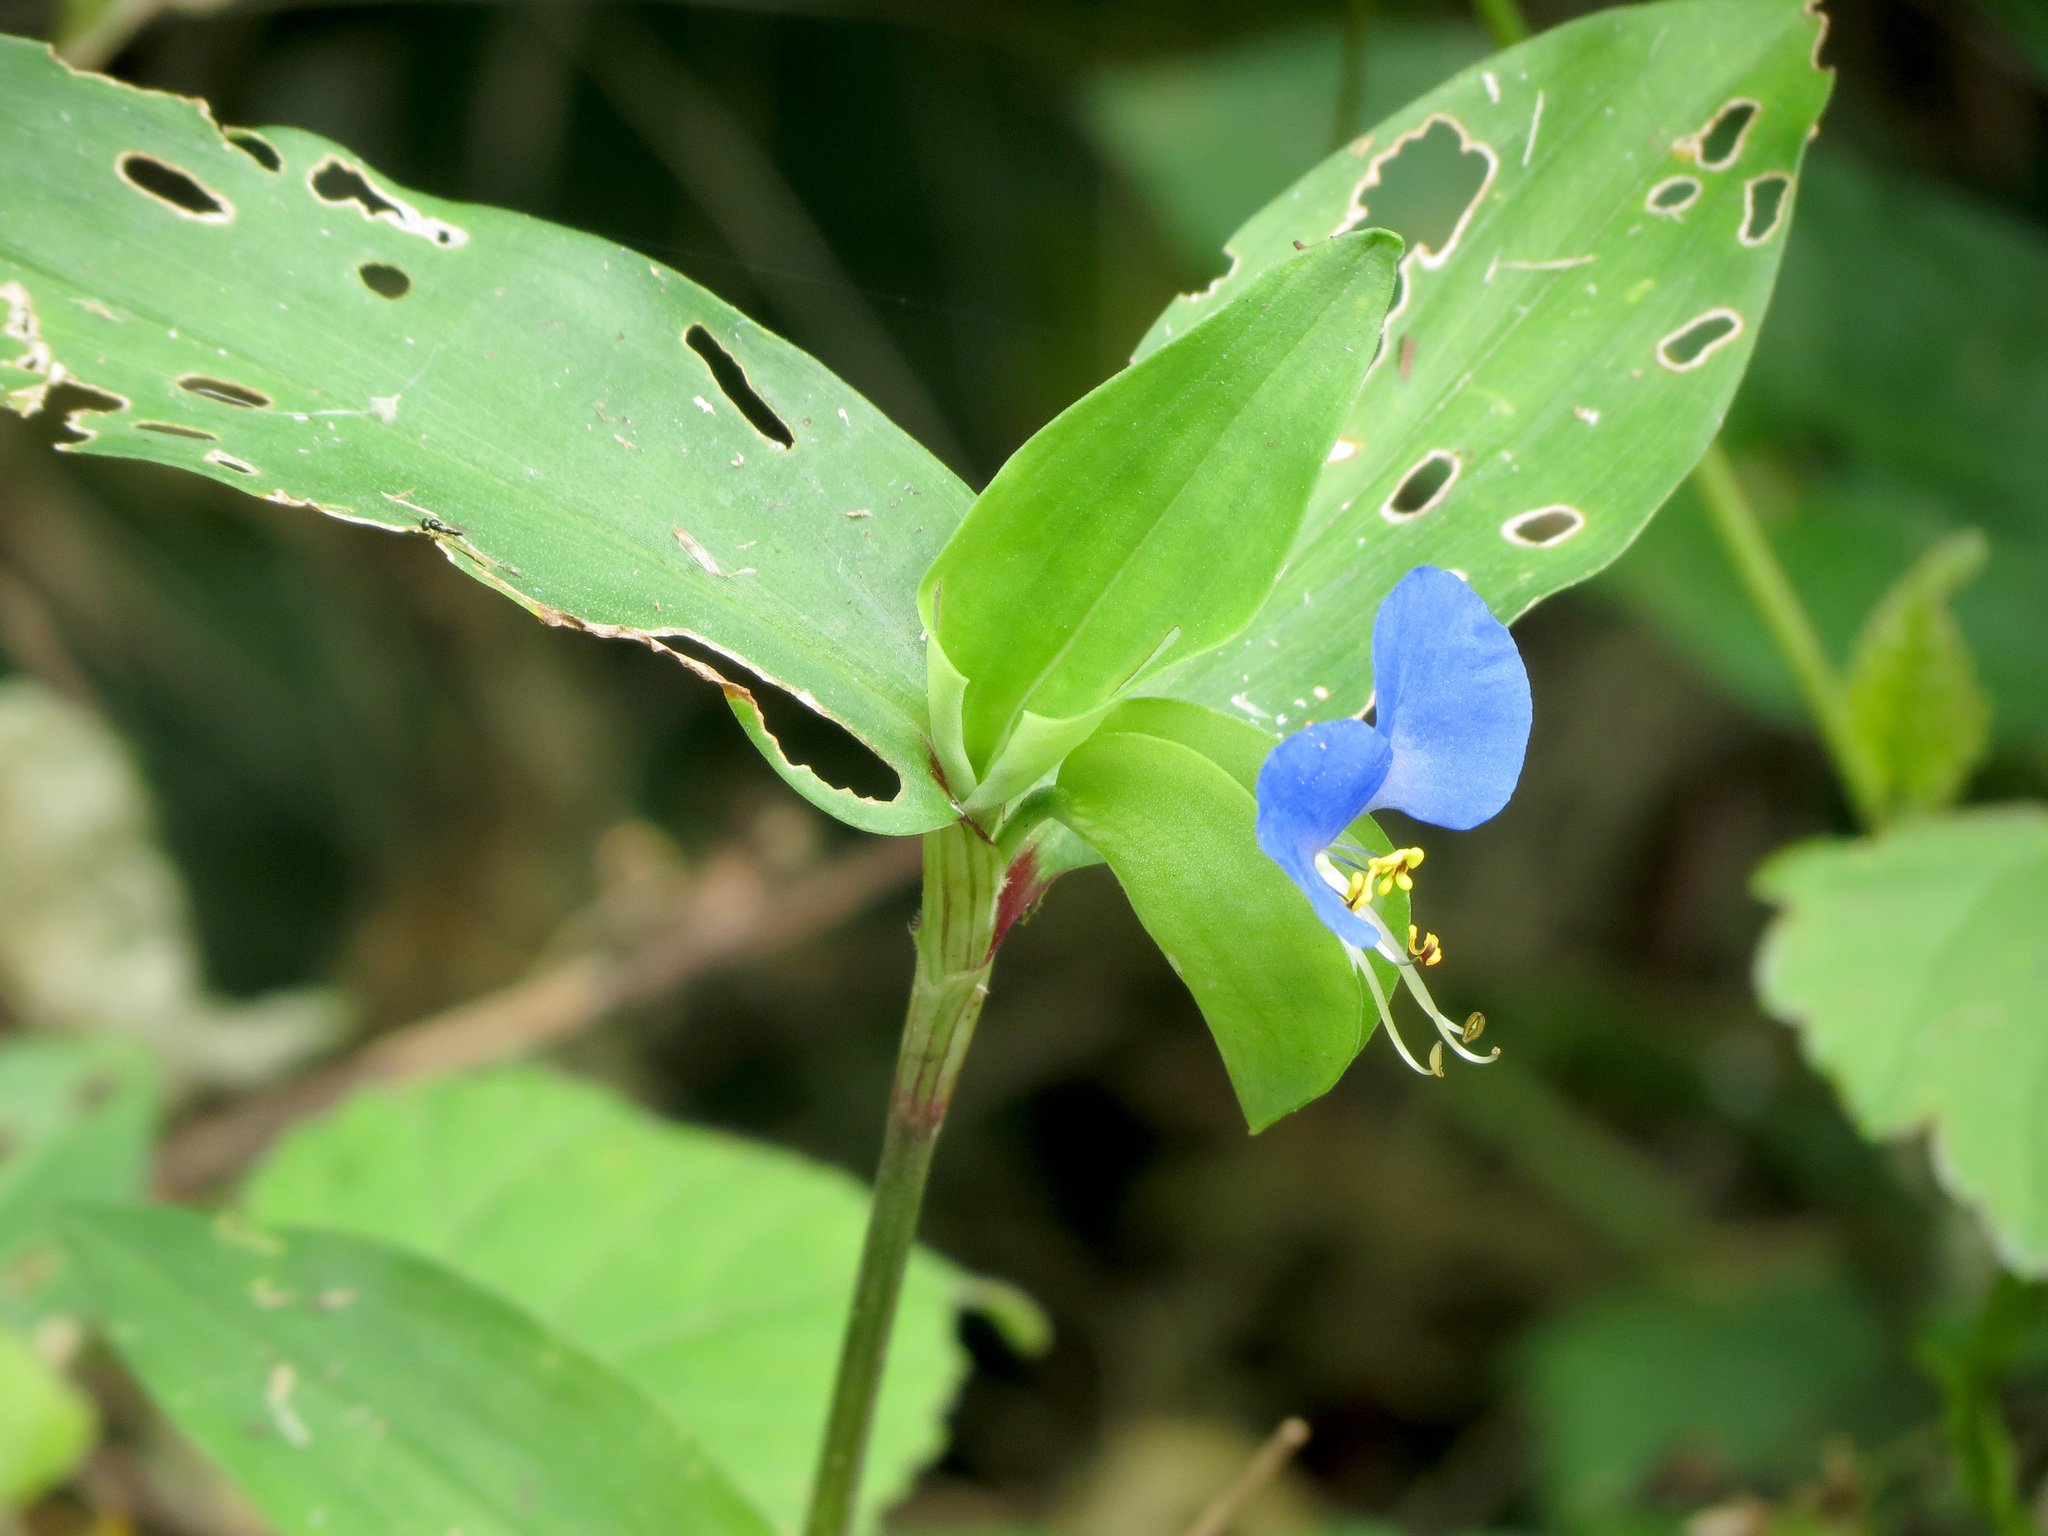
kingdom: Plantae
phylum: Tracheophyta
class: Liliopsida
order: Commelinales
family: Commelinaceae
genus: Commelina
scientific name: Commelina communis
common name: Asiatic dayflower
